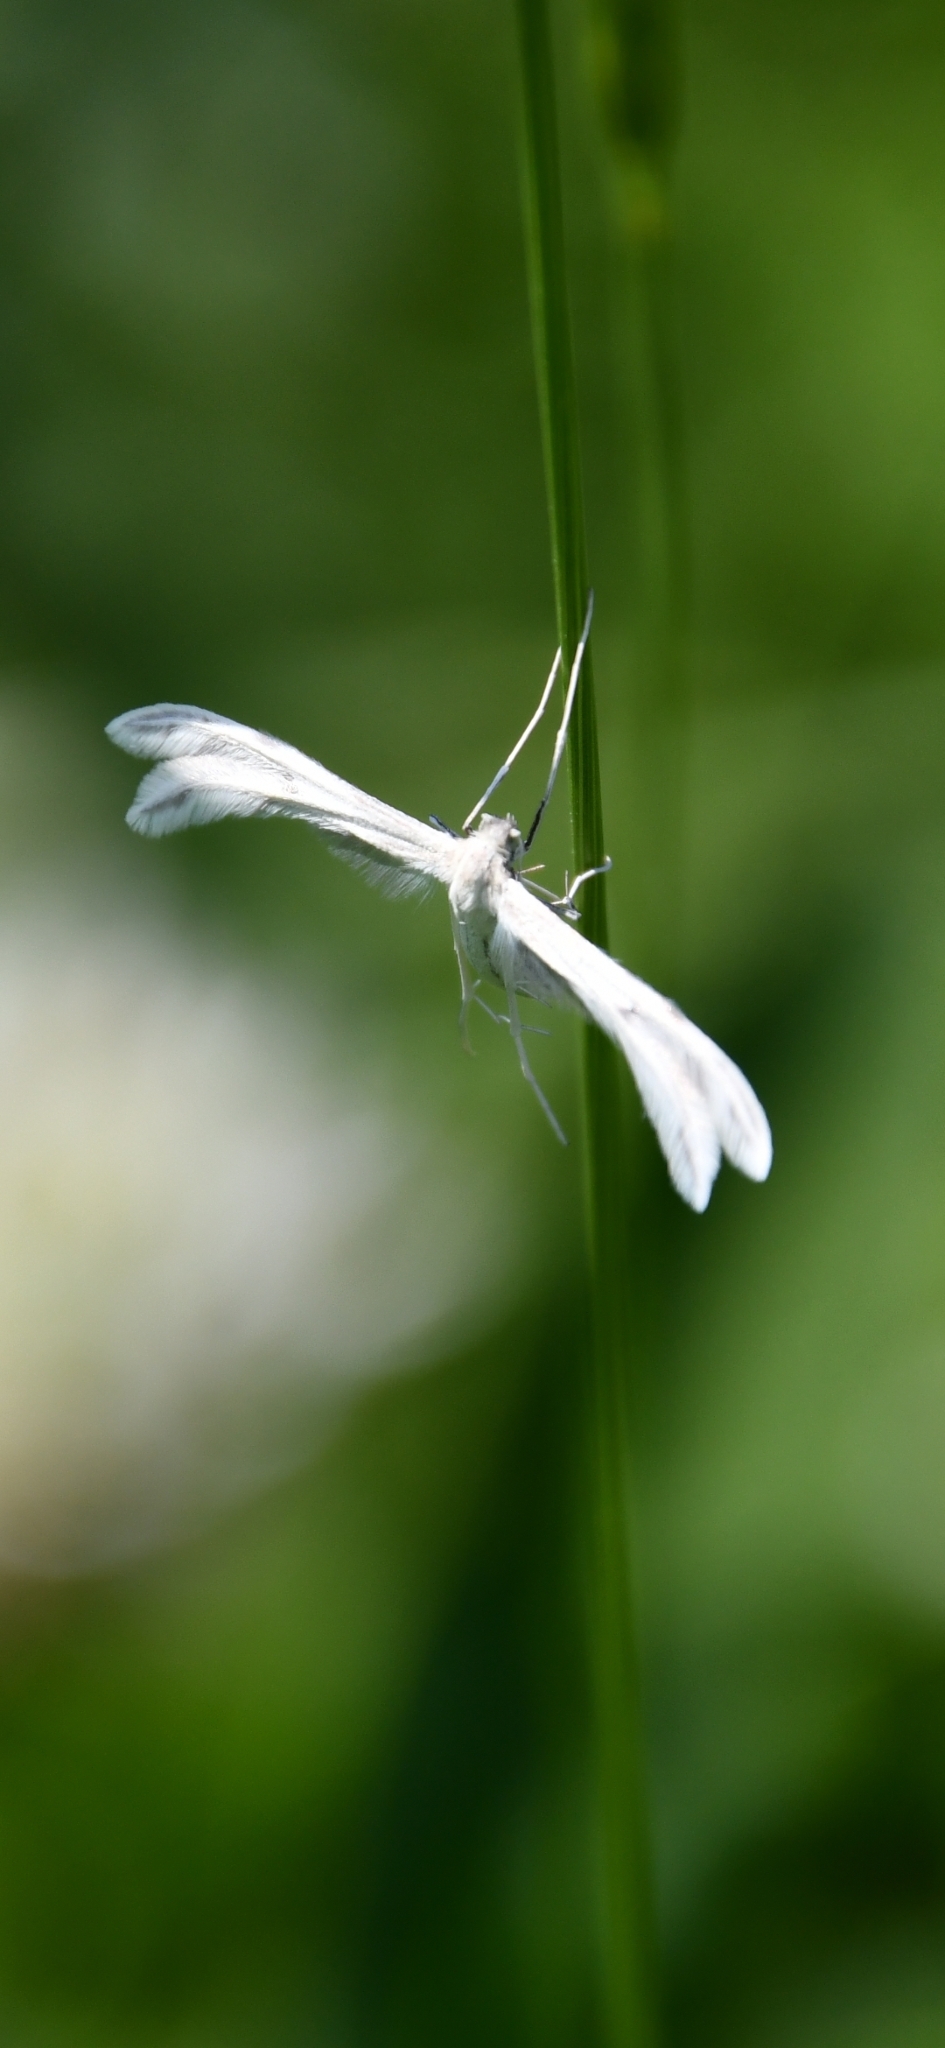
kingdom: Animalia
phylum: Arthropoda
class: Insecta
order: Lepidoptera
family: Pterophoridae
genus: Porrittia
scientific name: Porrittia galactodactyla
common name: Spotted white plume
